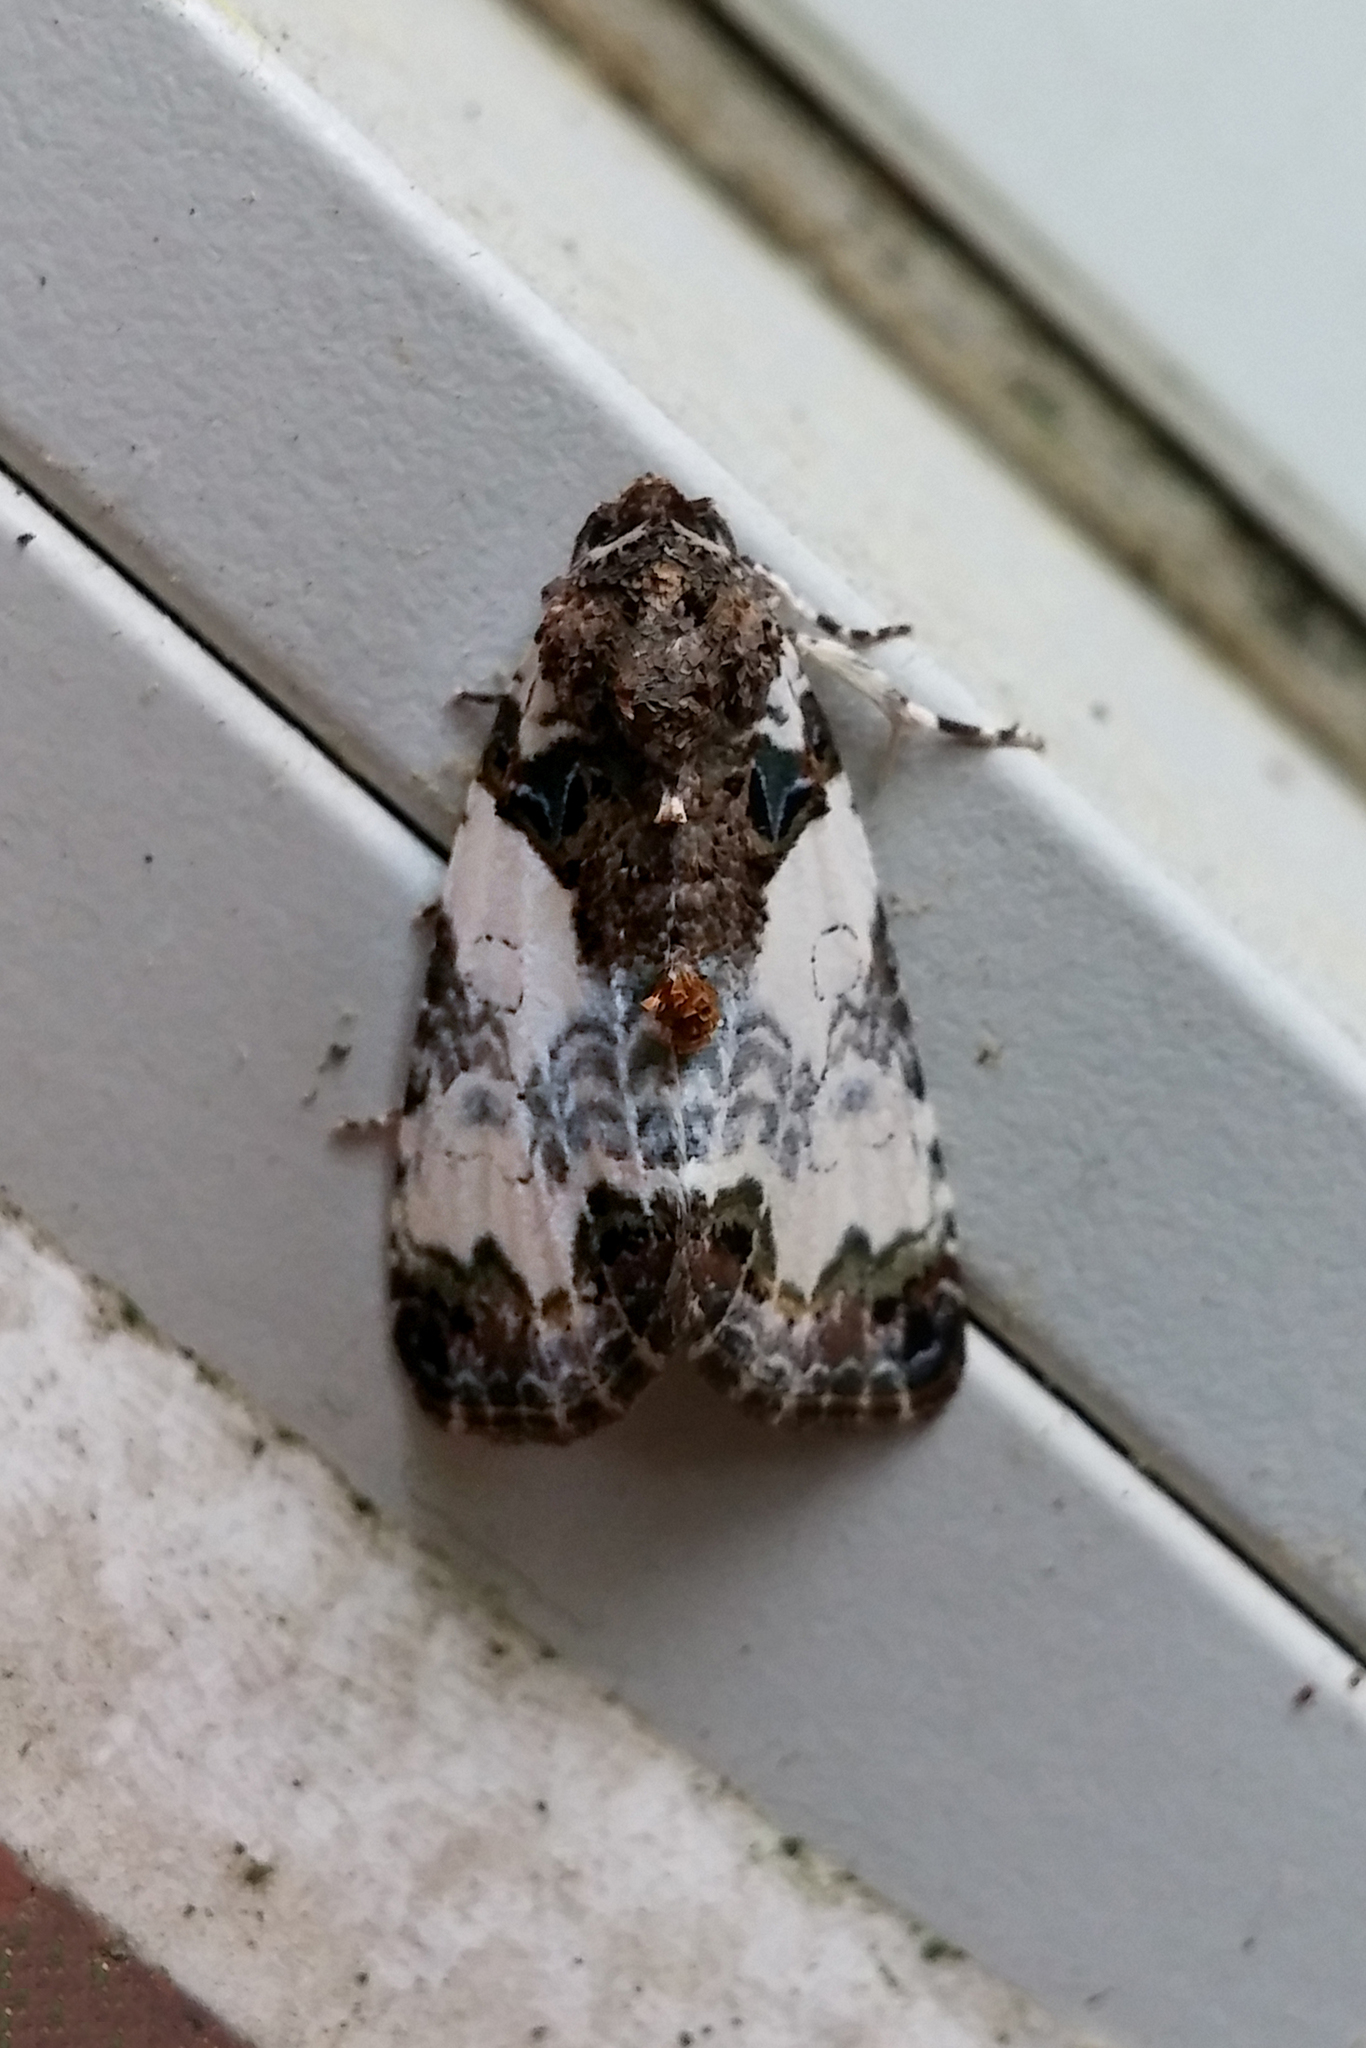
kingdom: Animalia
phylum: Arthropoda
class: Insecta
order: Lepidoptera
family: Noctuidae
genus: Cerma
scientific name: Cerma cerintha
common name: Tufted bird-dropping moth
